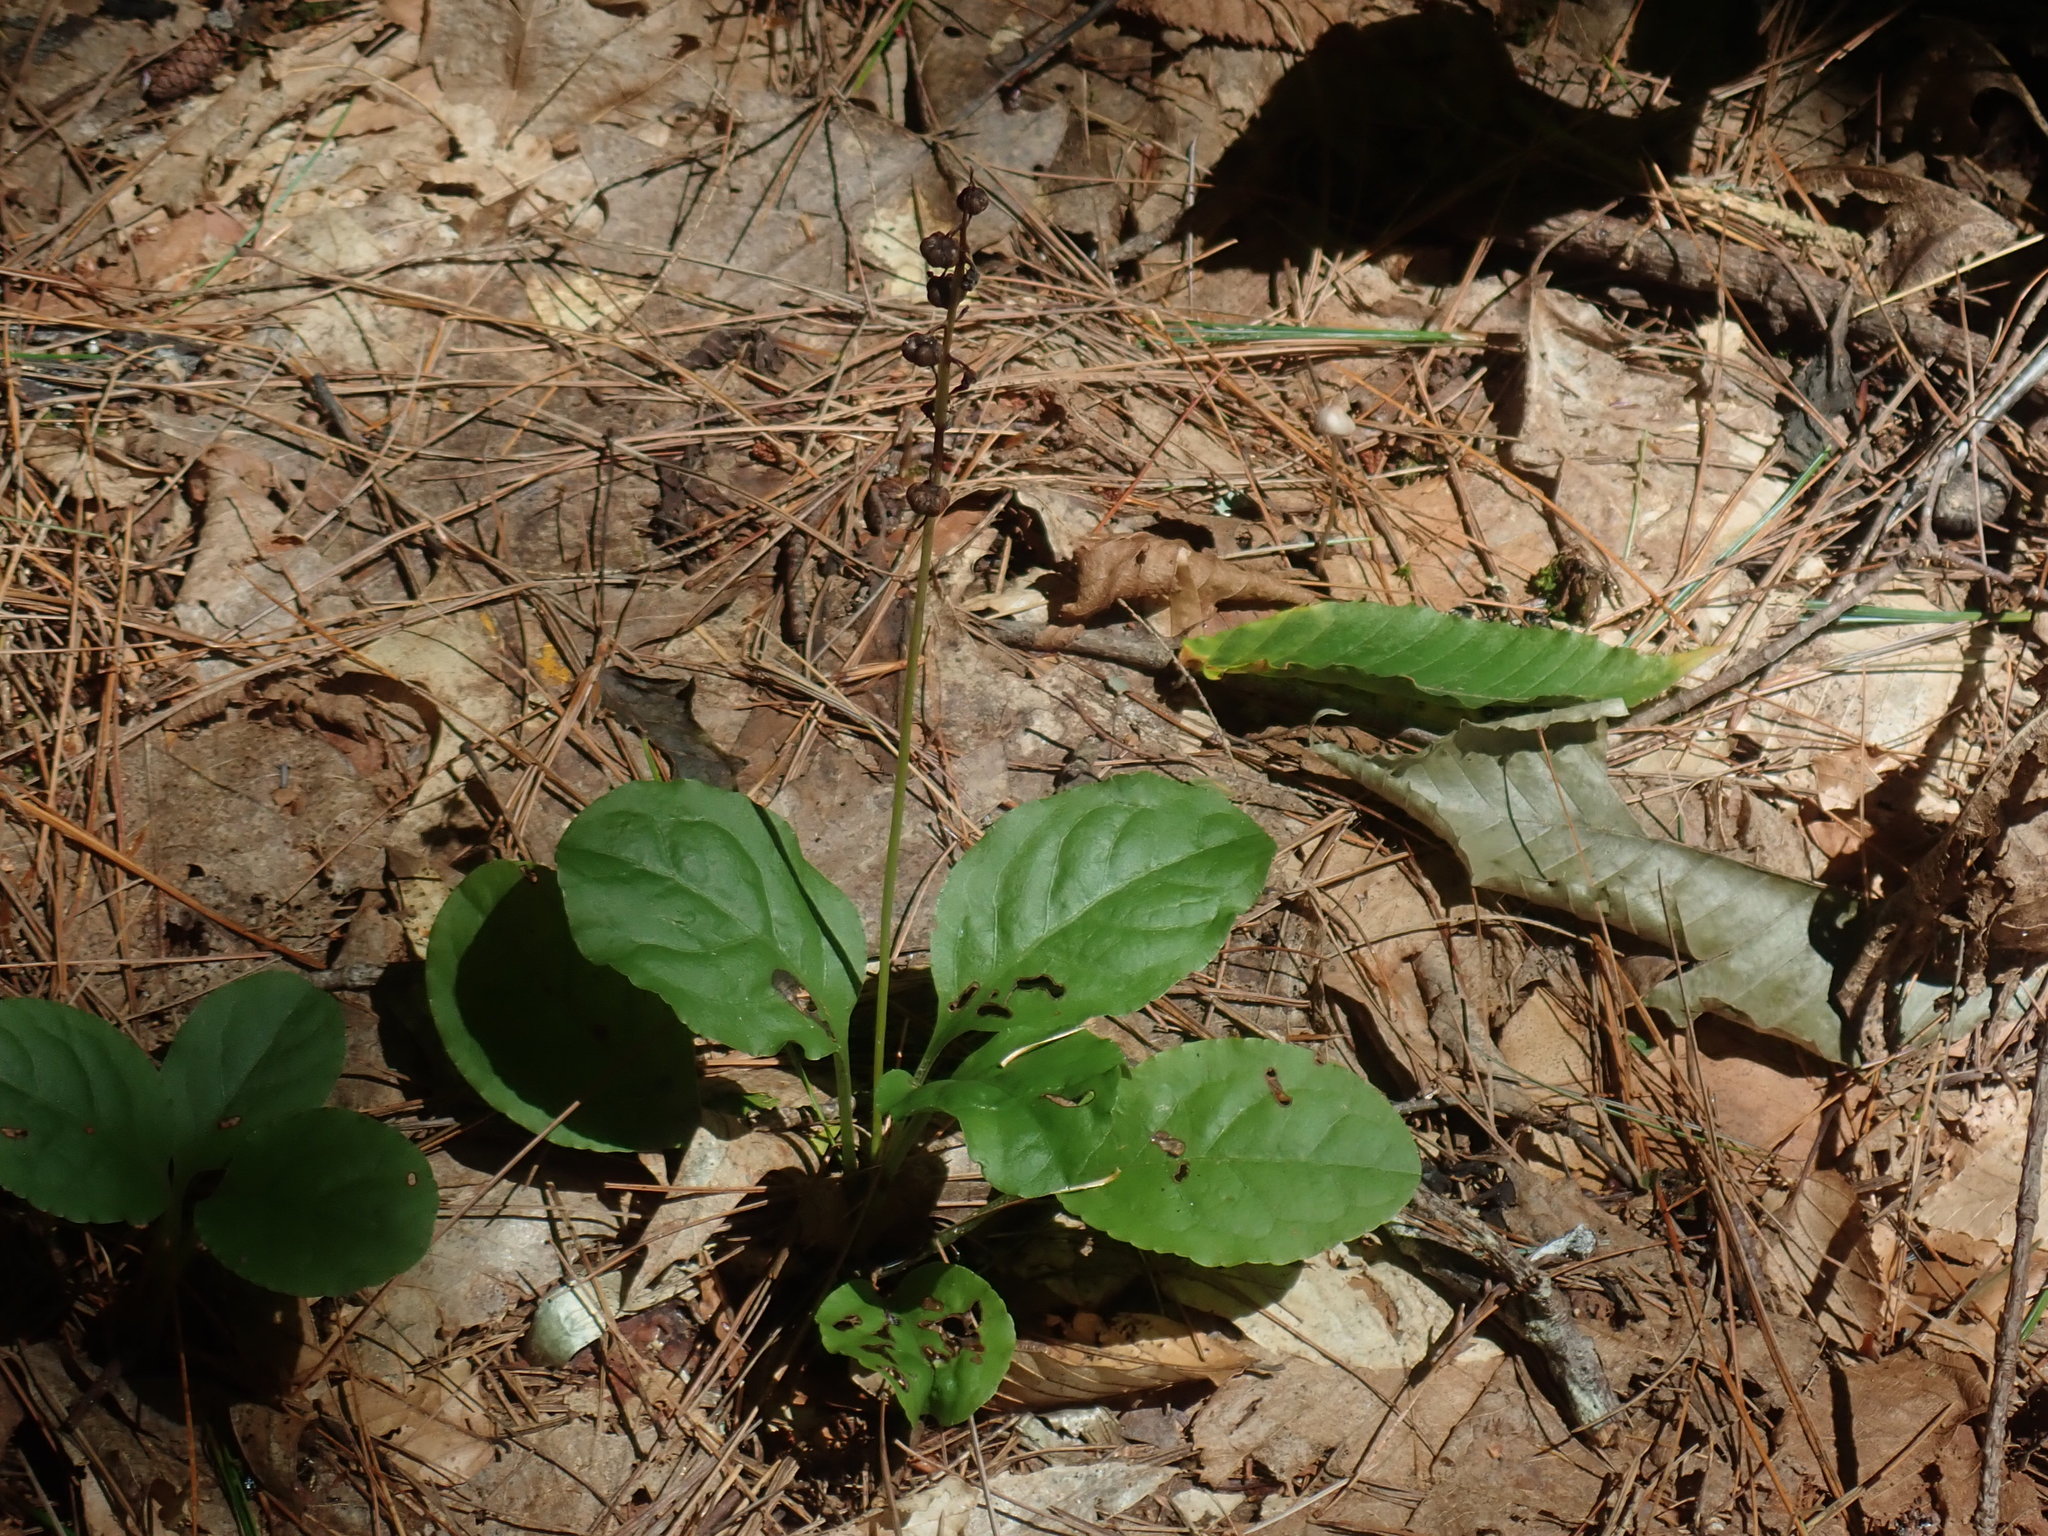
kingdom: Plantae
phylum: Tracheophyta
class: Magnoliopsida
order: Ericales
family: Ericaceae
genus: Pyrola
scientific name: Pyrola elliptica
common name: Shinleaf
